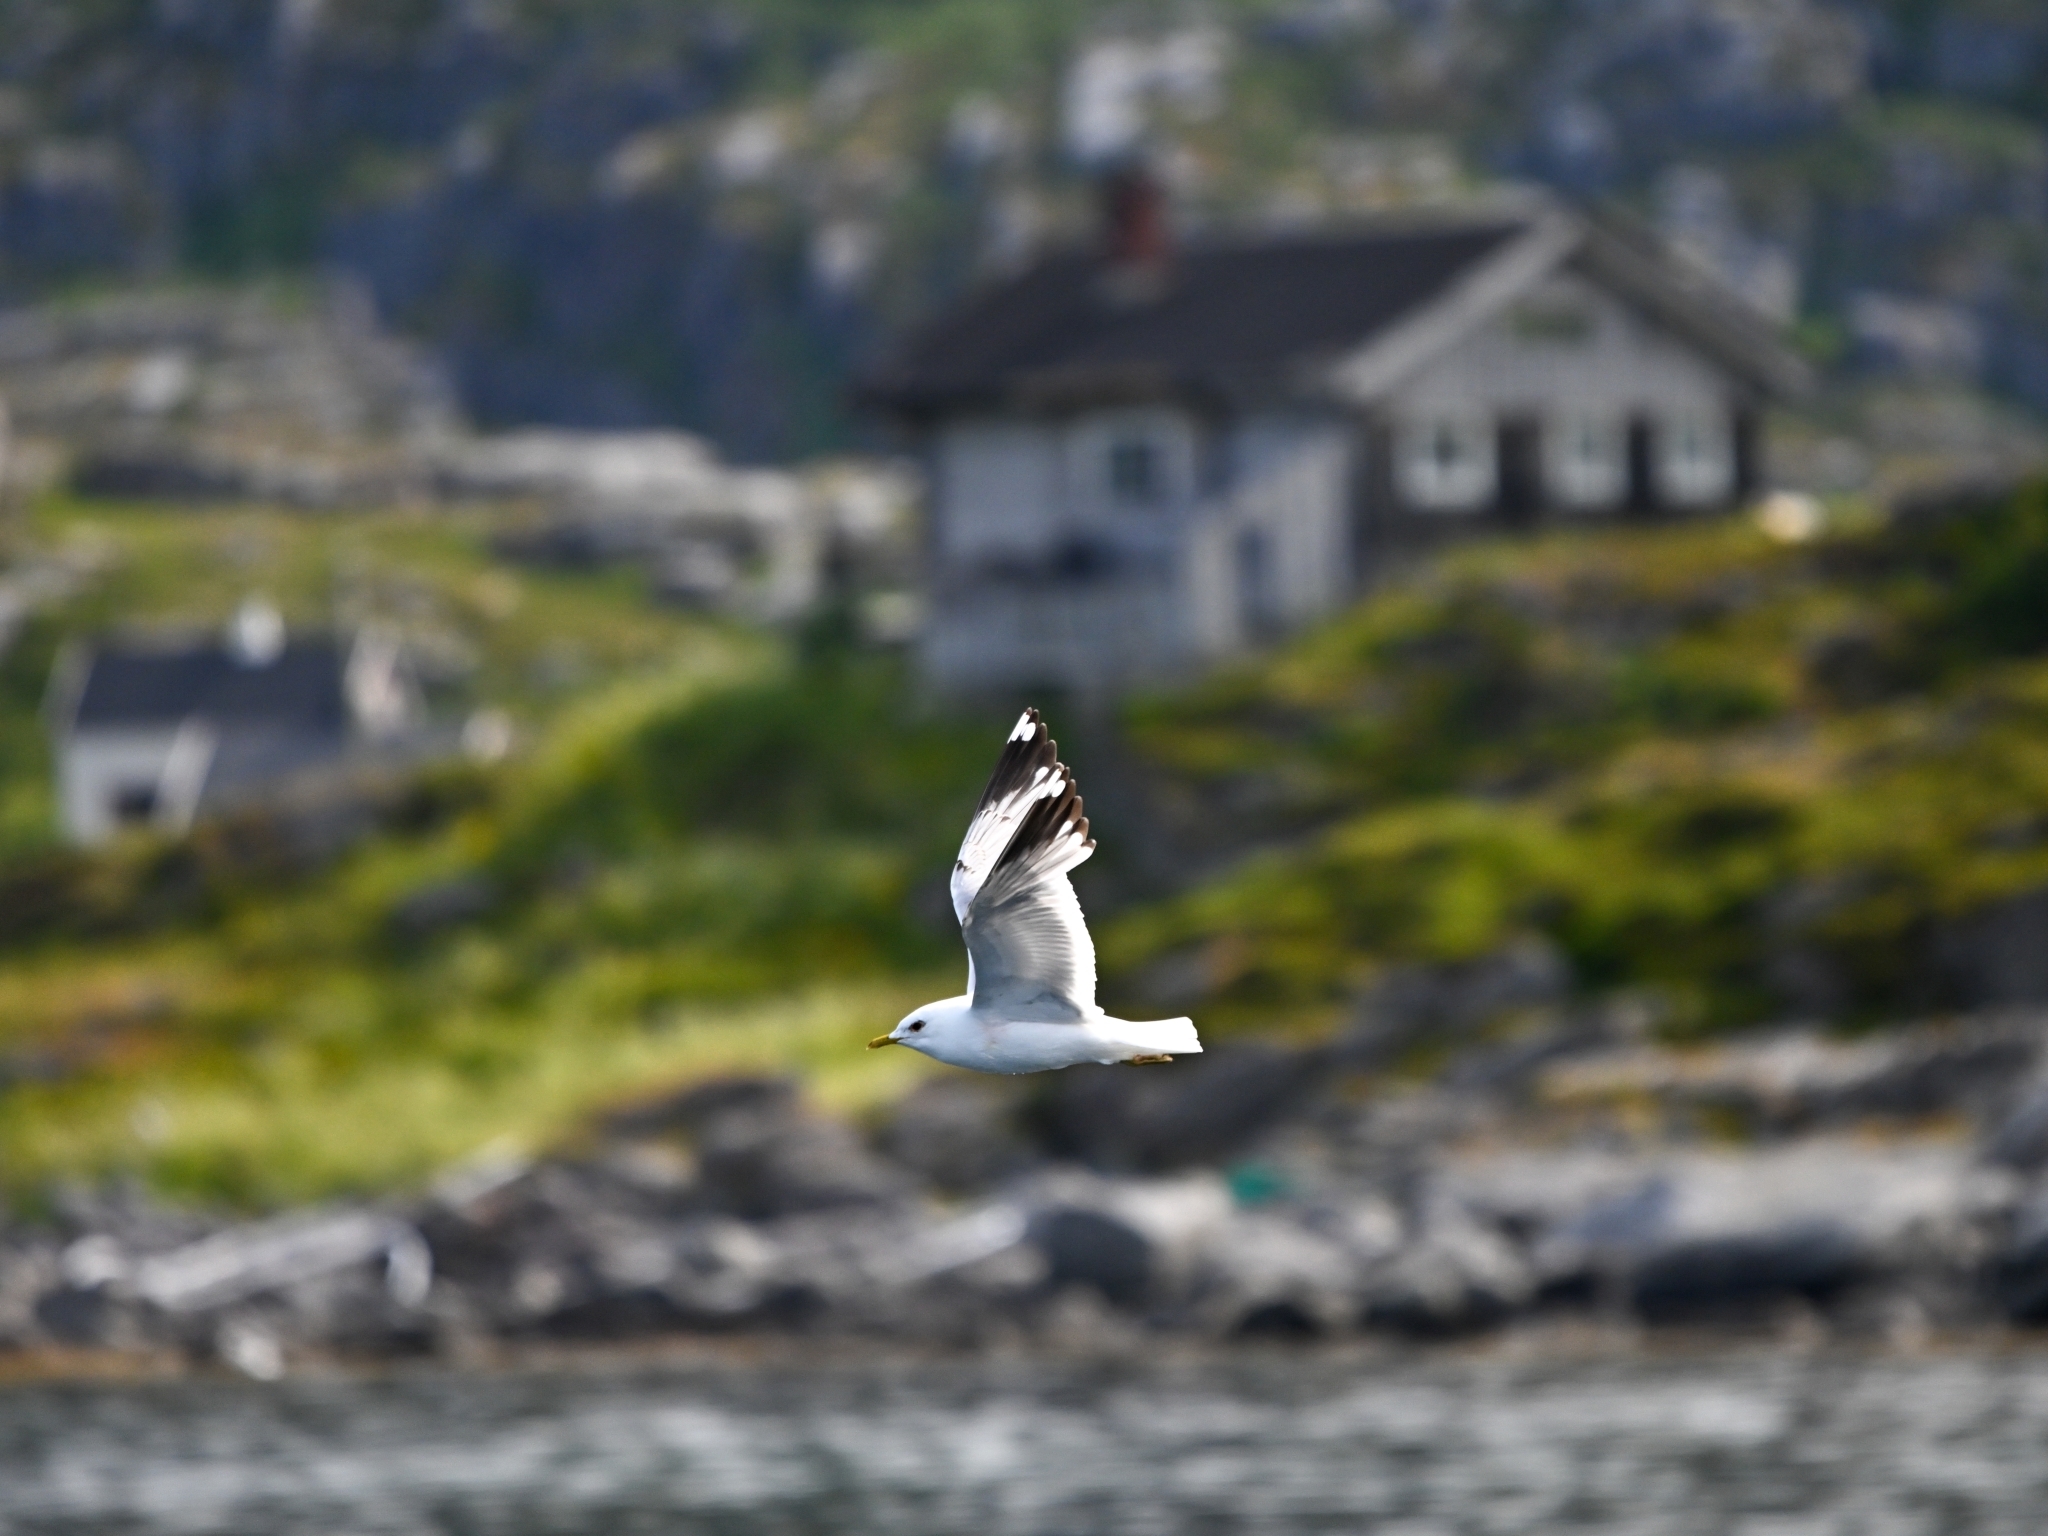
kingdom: Animalia
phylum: Chordata
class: Aves
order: Charadriiformes
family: Laridae
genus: Larus
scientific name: Larus canus
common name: Mew gull
